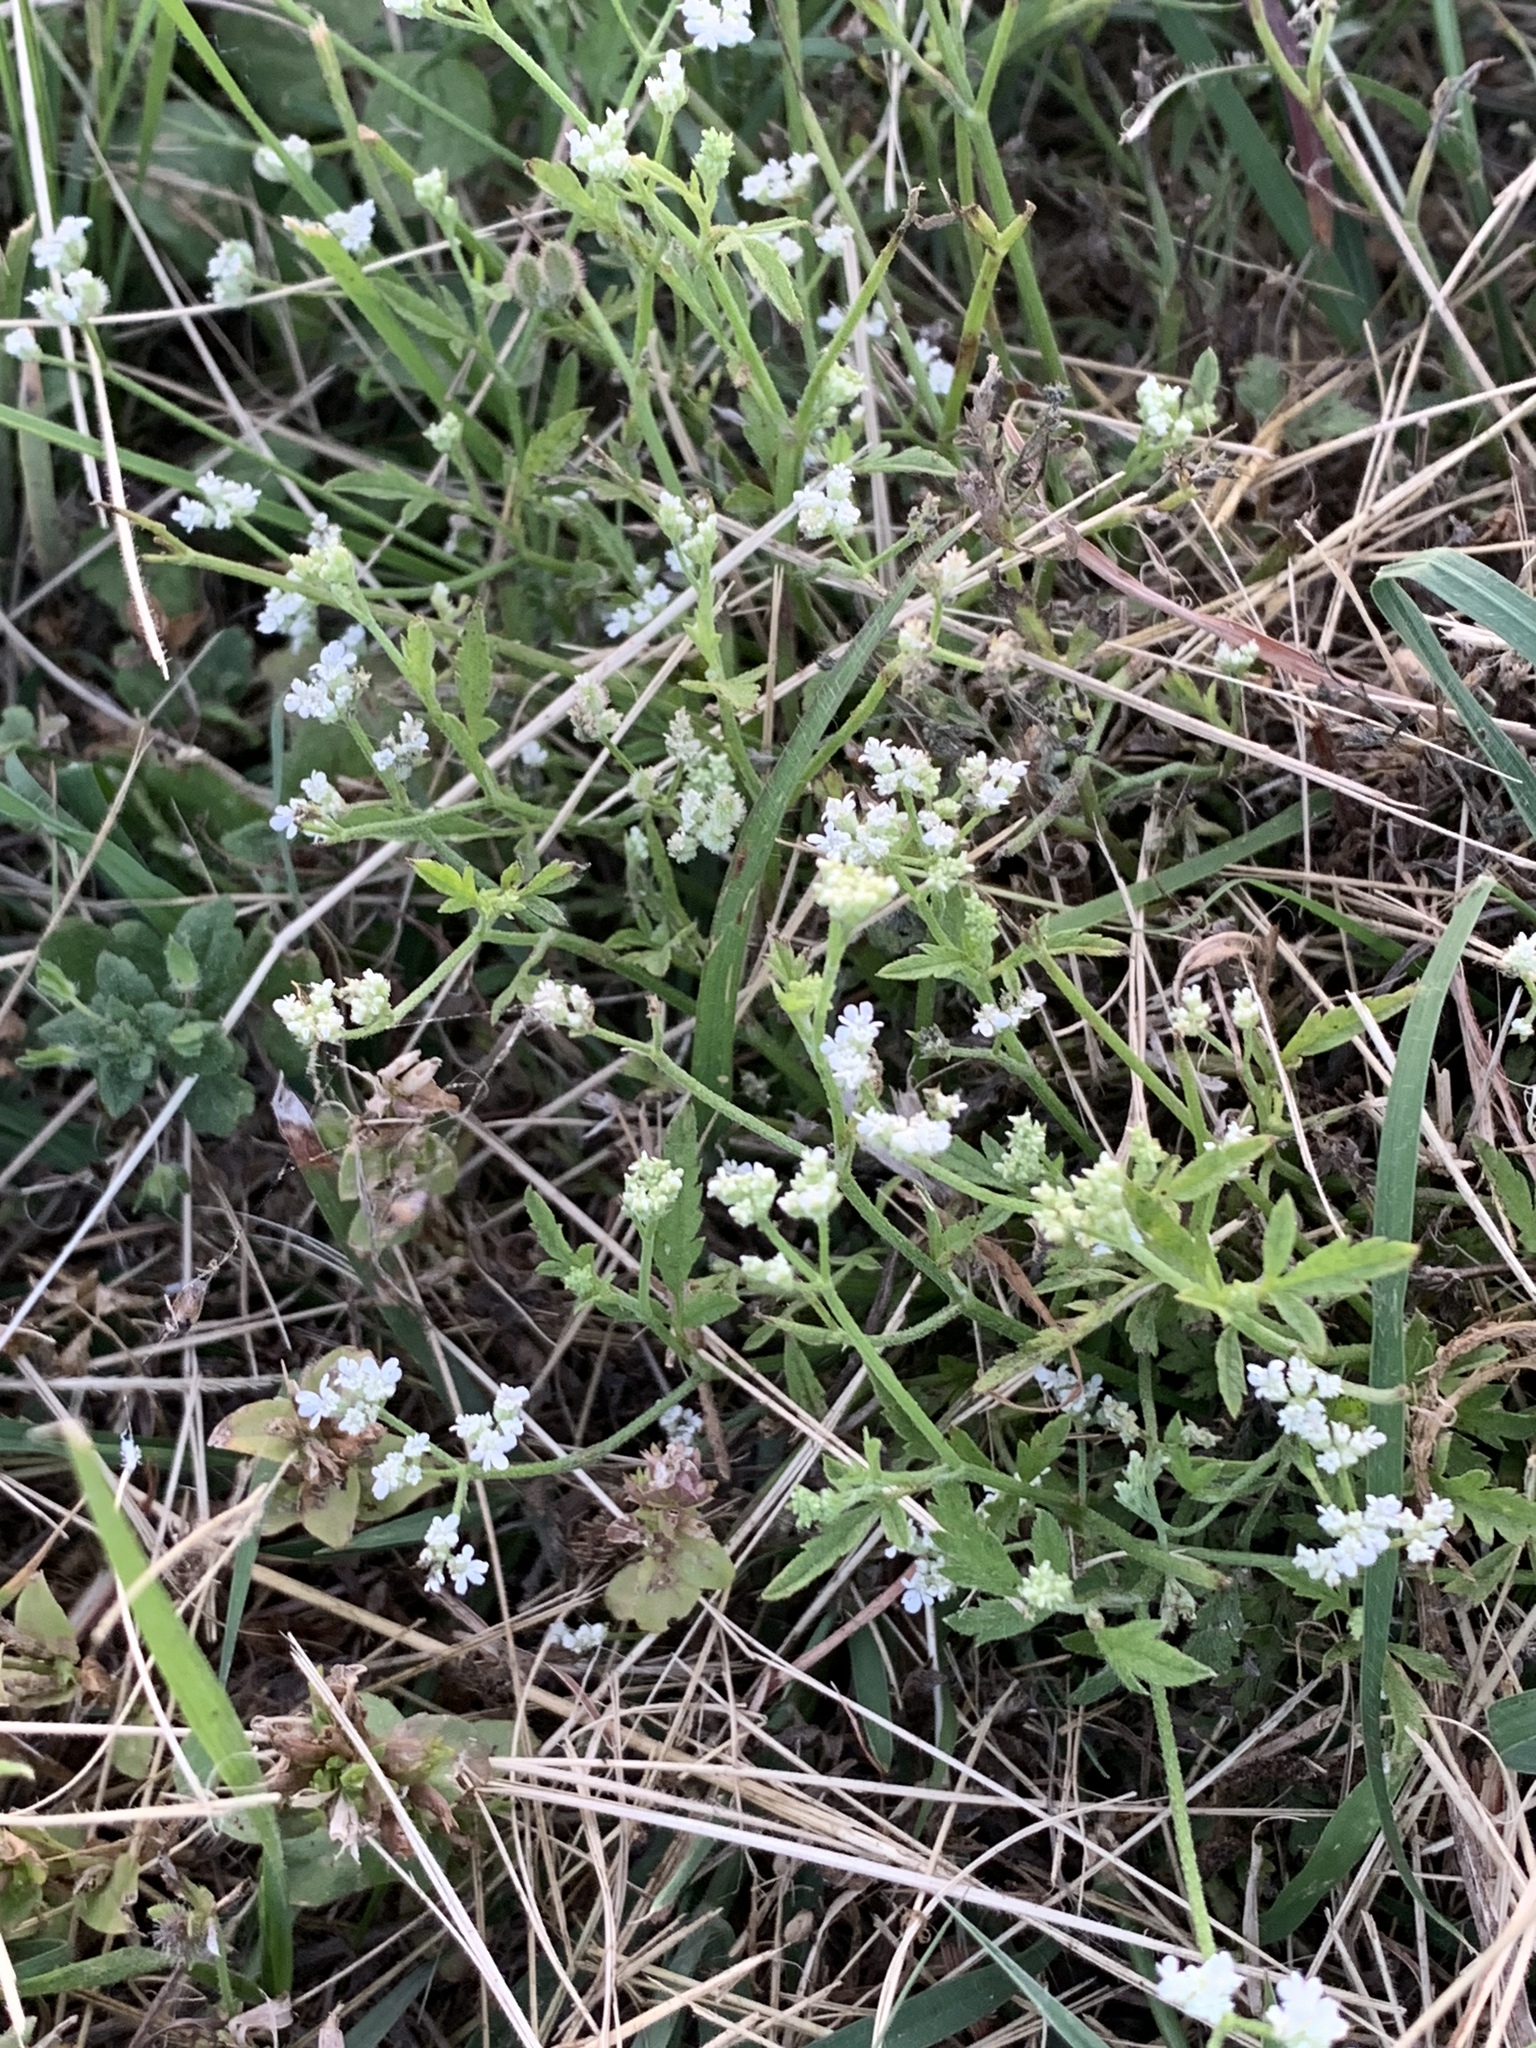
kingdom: Plantae
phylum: Tracheophyta
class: Magnoliopsida
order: Apiales
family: Apiaceae
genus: Torilis
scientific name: Torilis arvensis
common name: Spreading hedge-parsley
